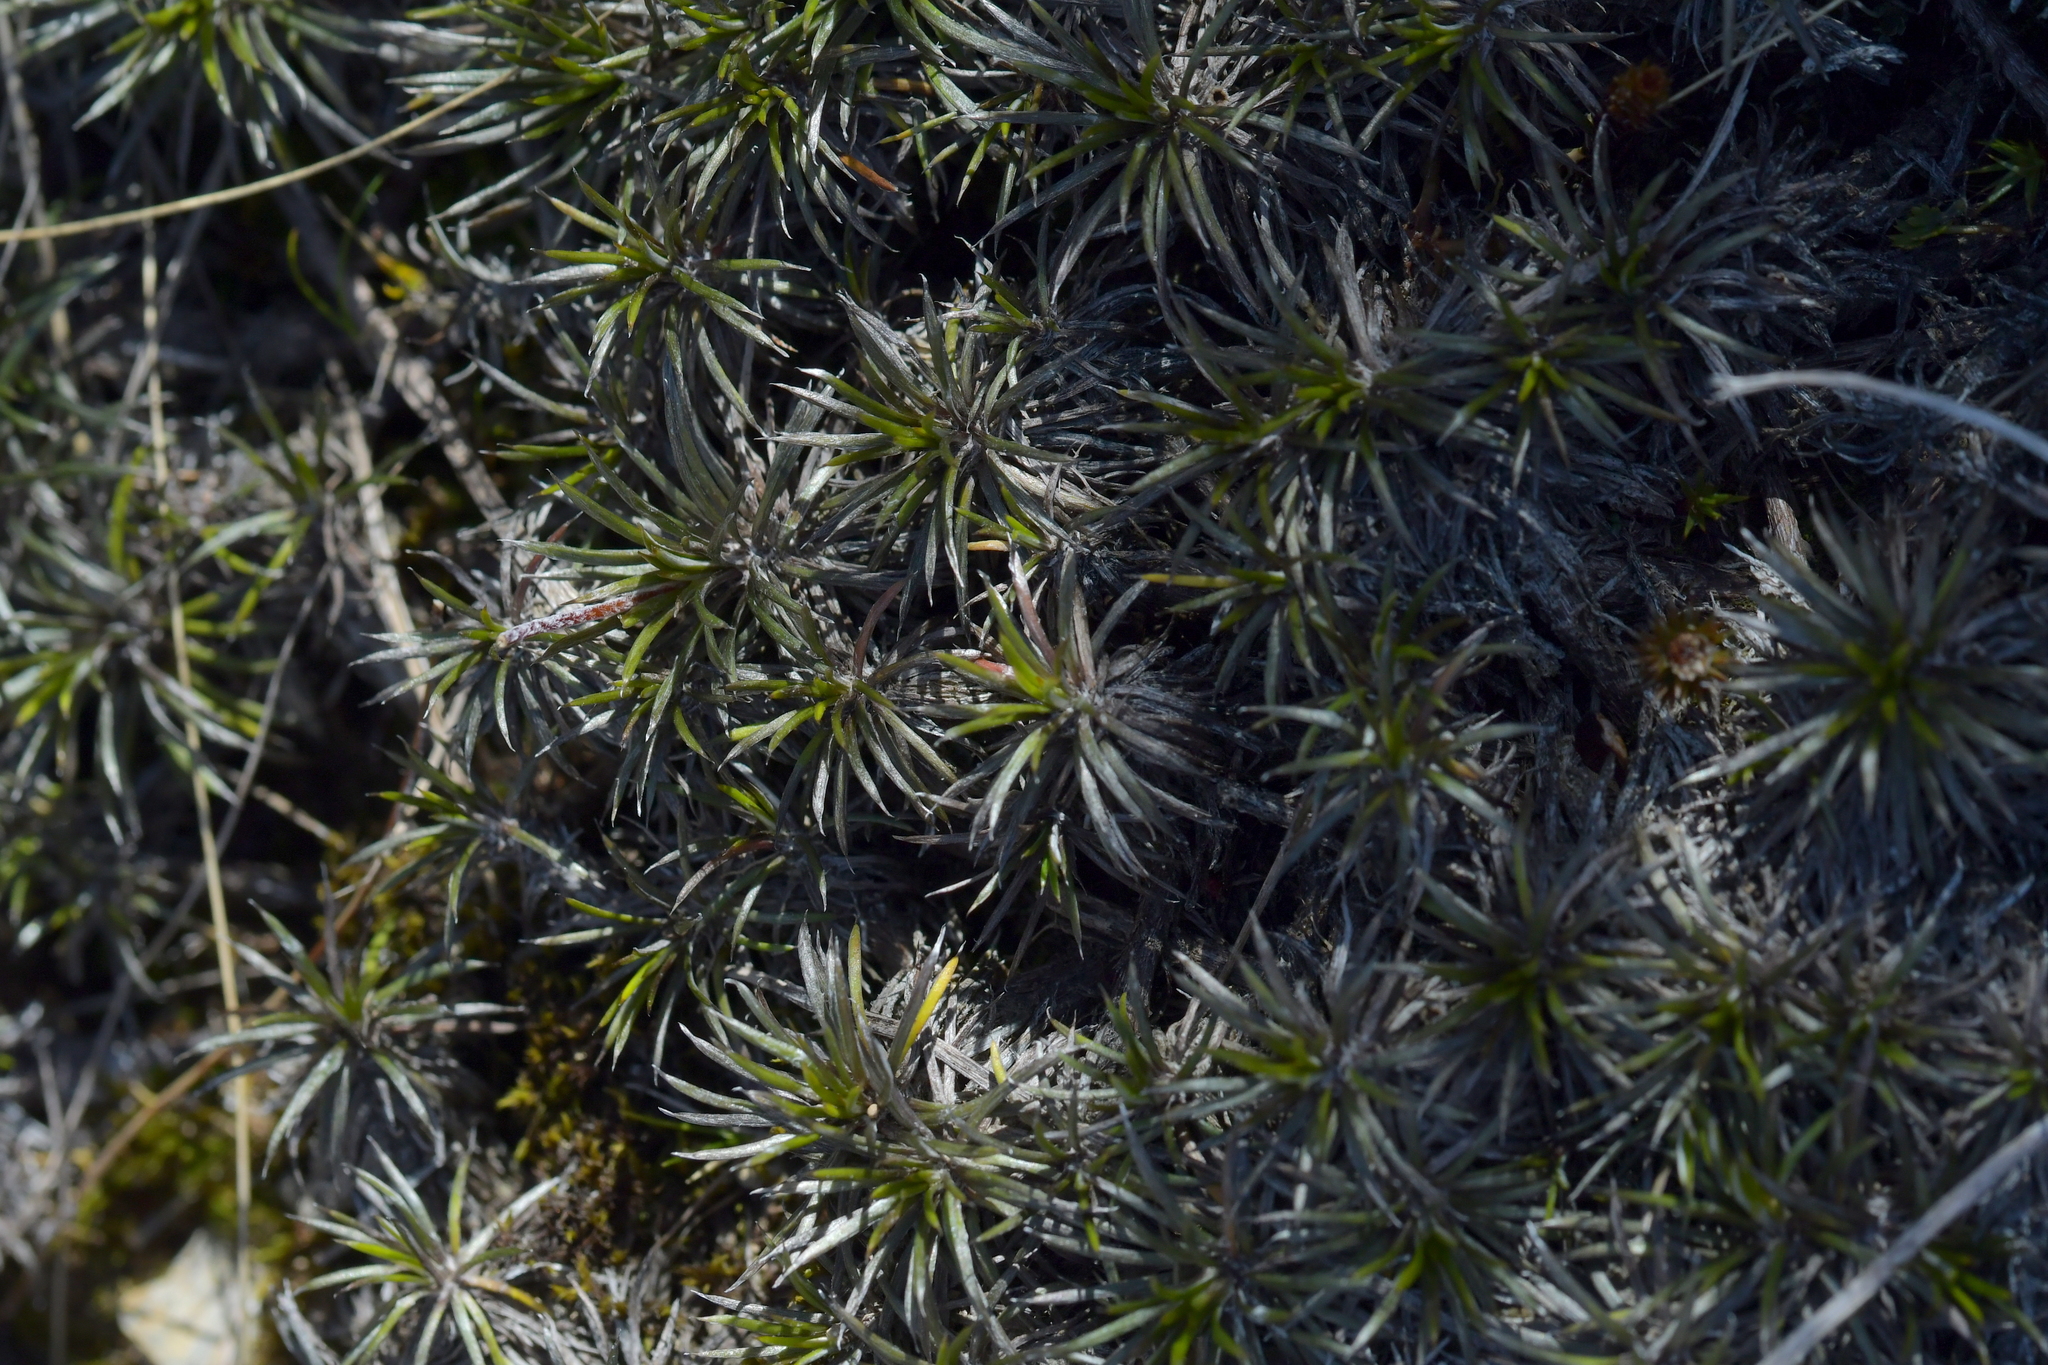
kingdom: Plantae
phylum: Tracheophyta
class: Magnoliopsida
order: Asterales
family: Asteraceae
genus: Celmisia
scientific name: Celmisia laricifolia
